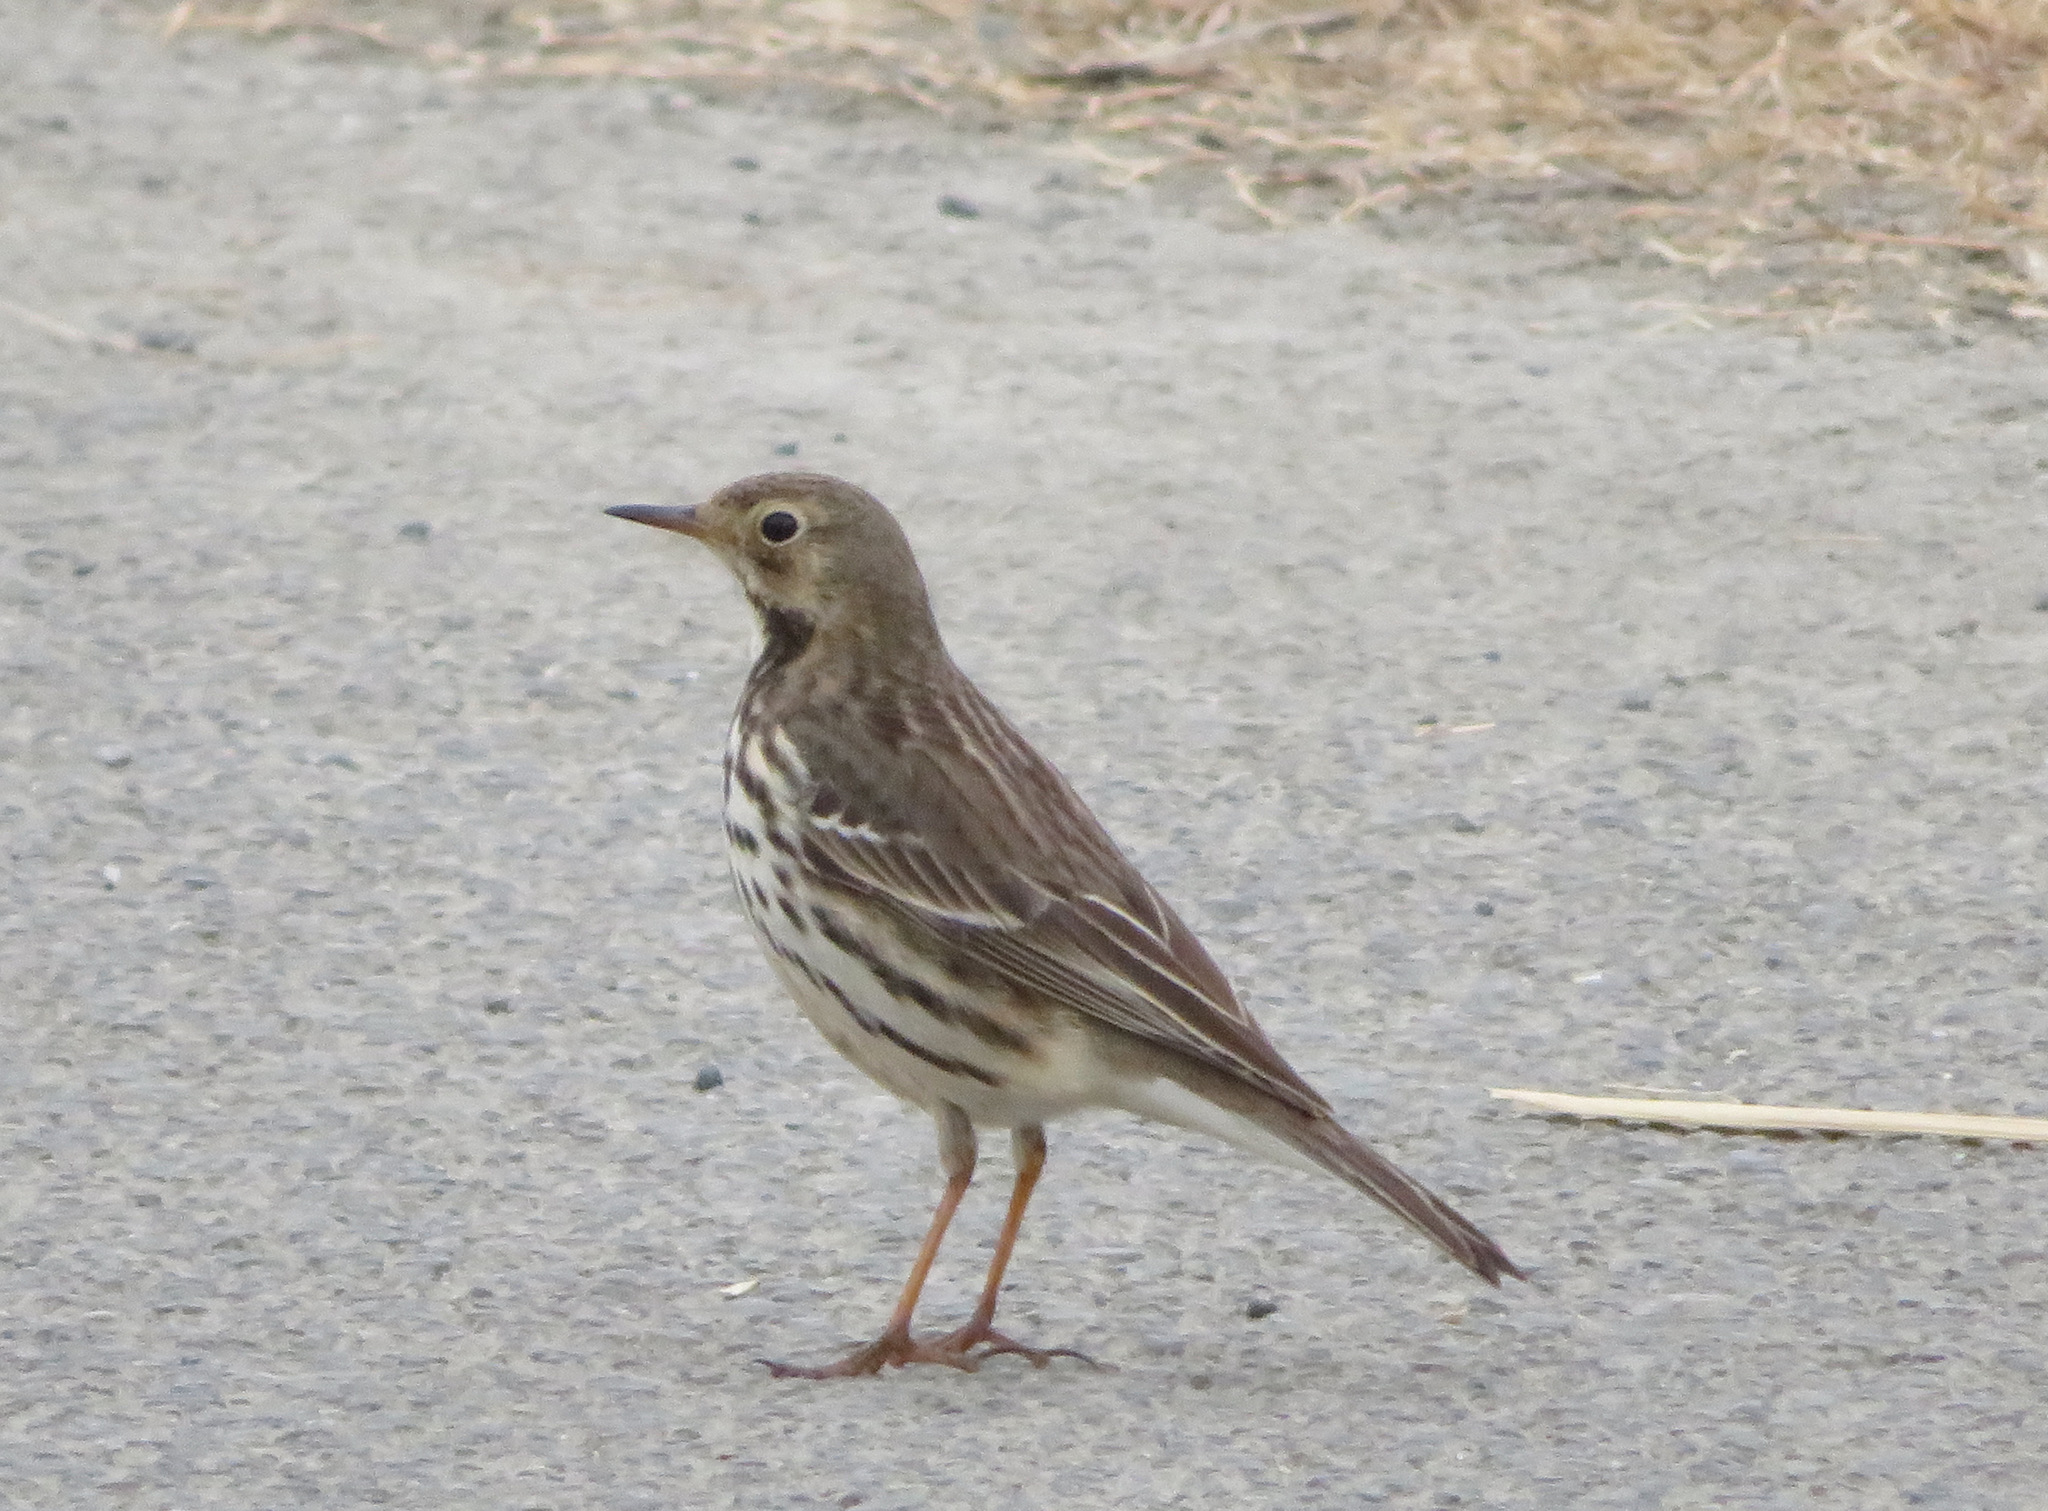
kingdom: Animalia
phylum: Chordata
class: Aves
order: Passeriformes
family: Motacillidae
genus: Anthus
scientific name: Anthus rubescens
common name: Buff-bellied pipit
